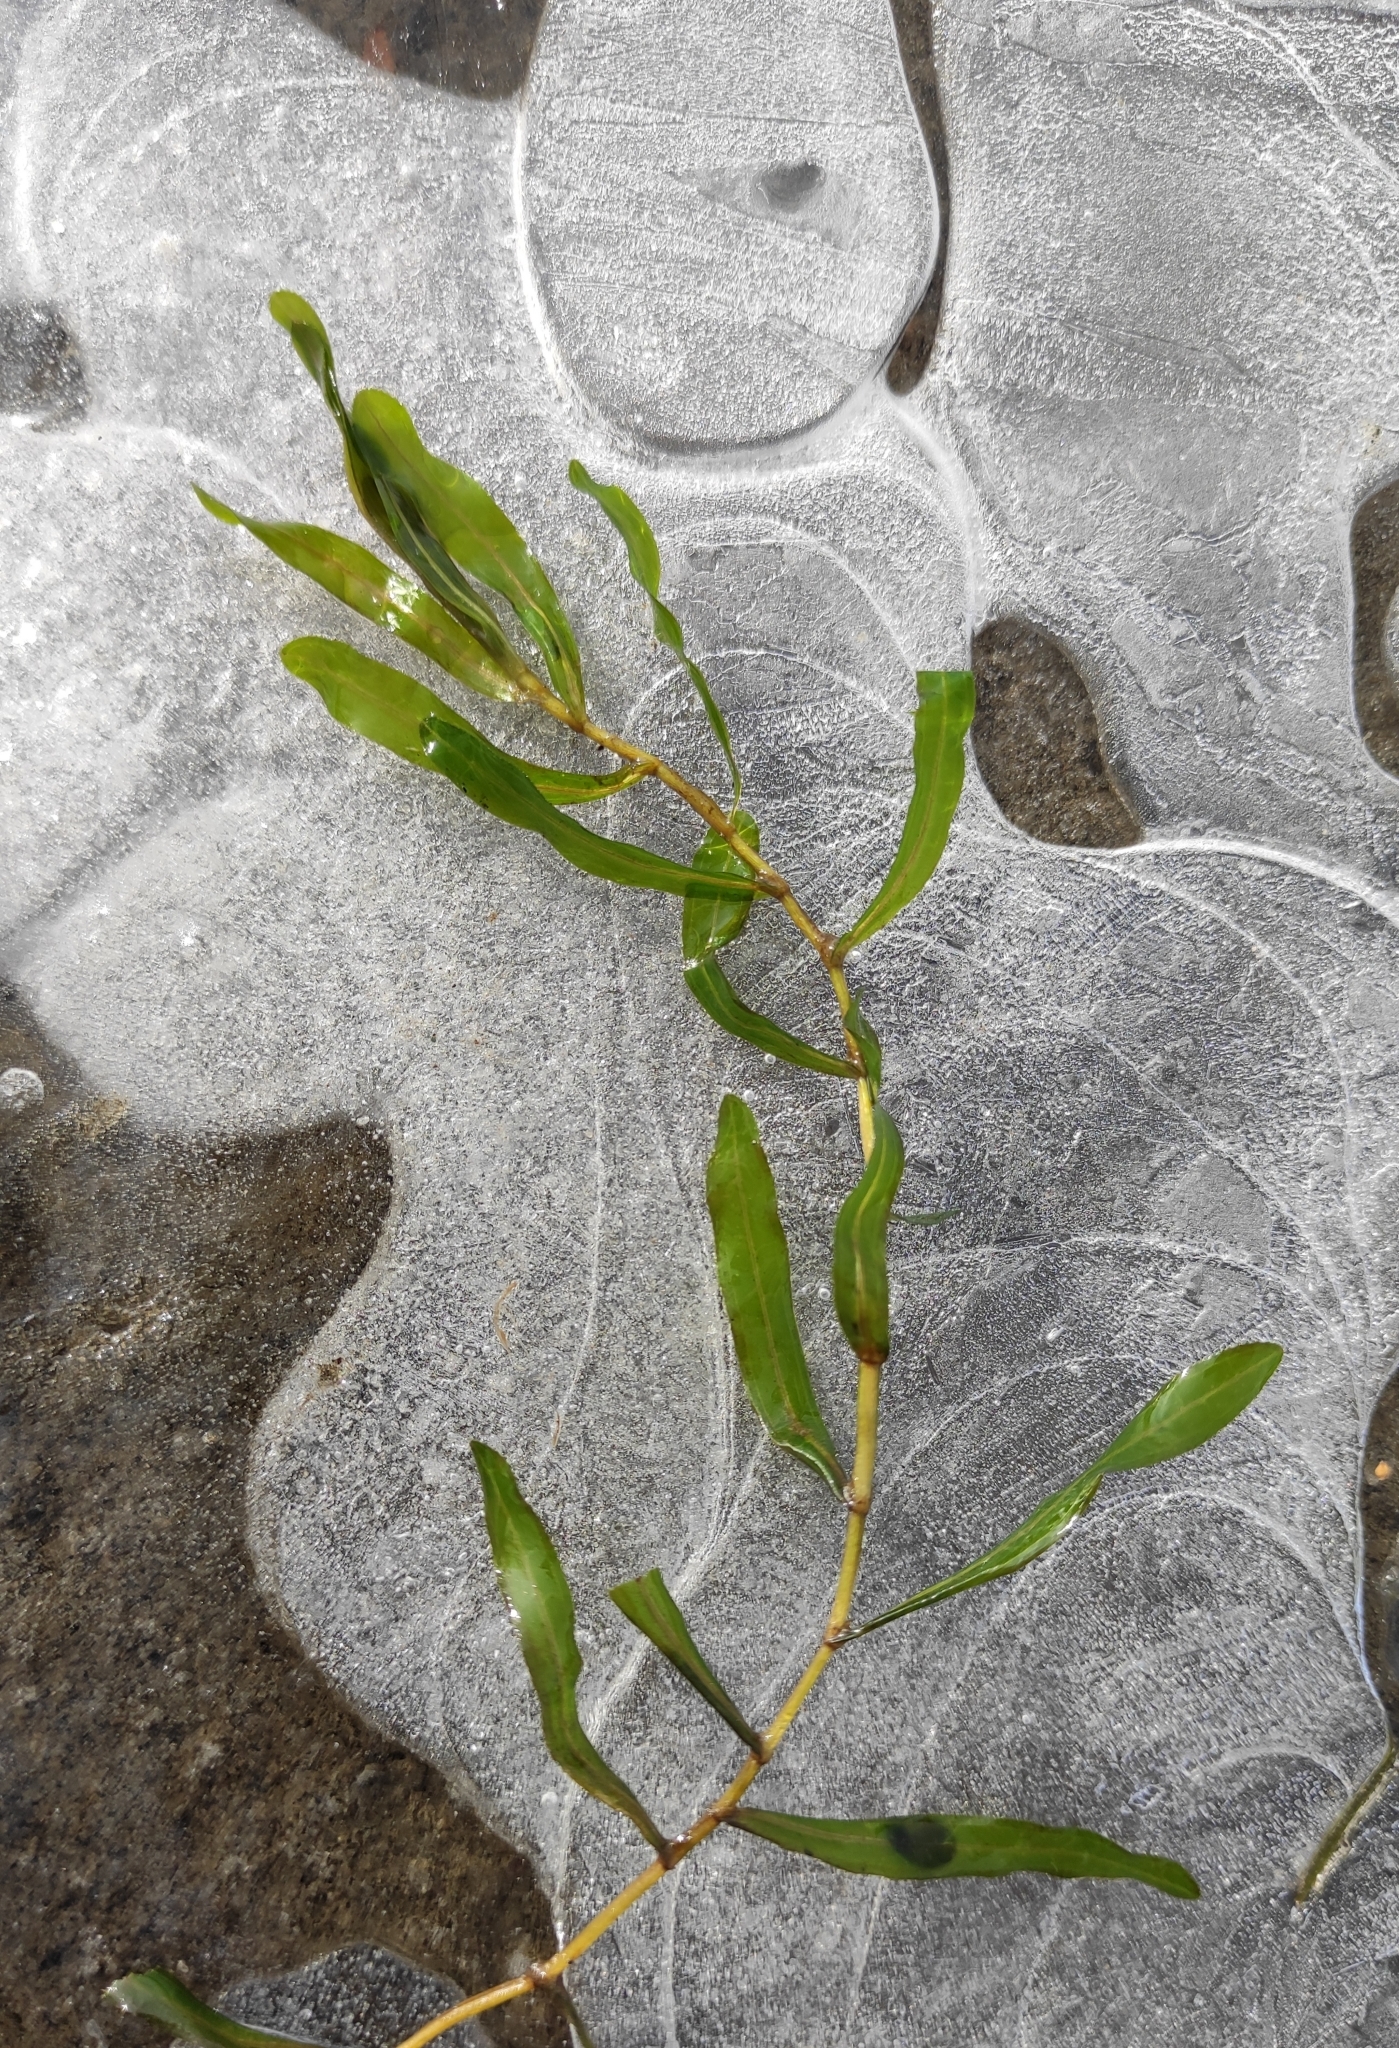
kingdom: Plantae
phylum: Tracheophyta
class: Liliopsida
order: Alismatales
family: Potamogetonaceae
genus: Potamogeton
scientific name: Potamogeton crispus
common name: Curled pondweed
